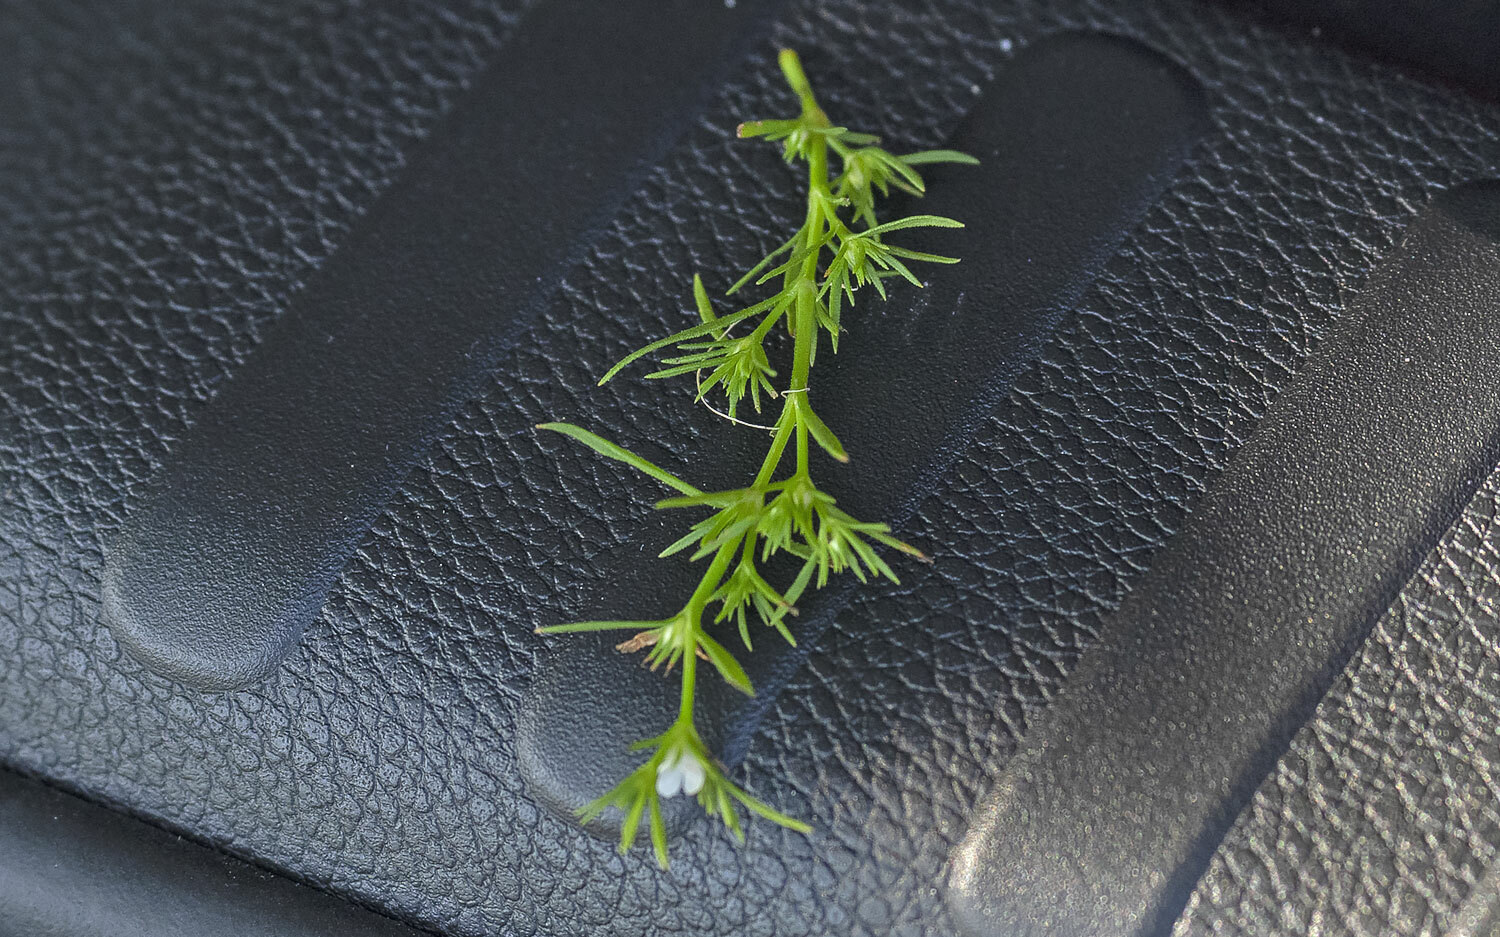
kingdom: Plantae
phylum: Tracheophyta
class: Magnoliopsida
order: Lamiales
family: Tetrachondraceae
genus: Polypremum
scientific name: Polypremum procumbens
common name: Juniper-leaf
